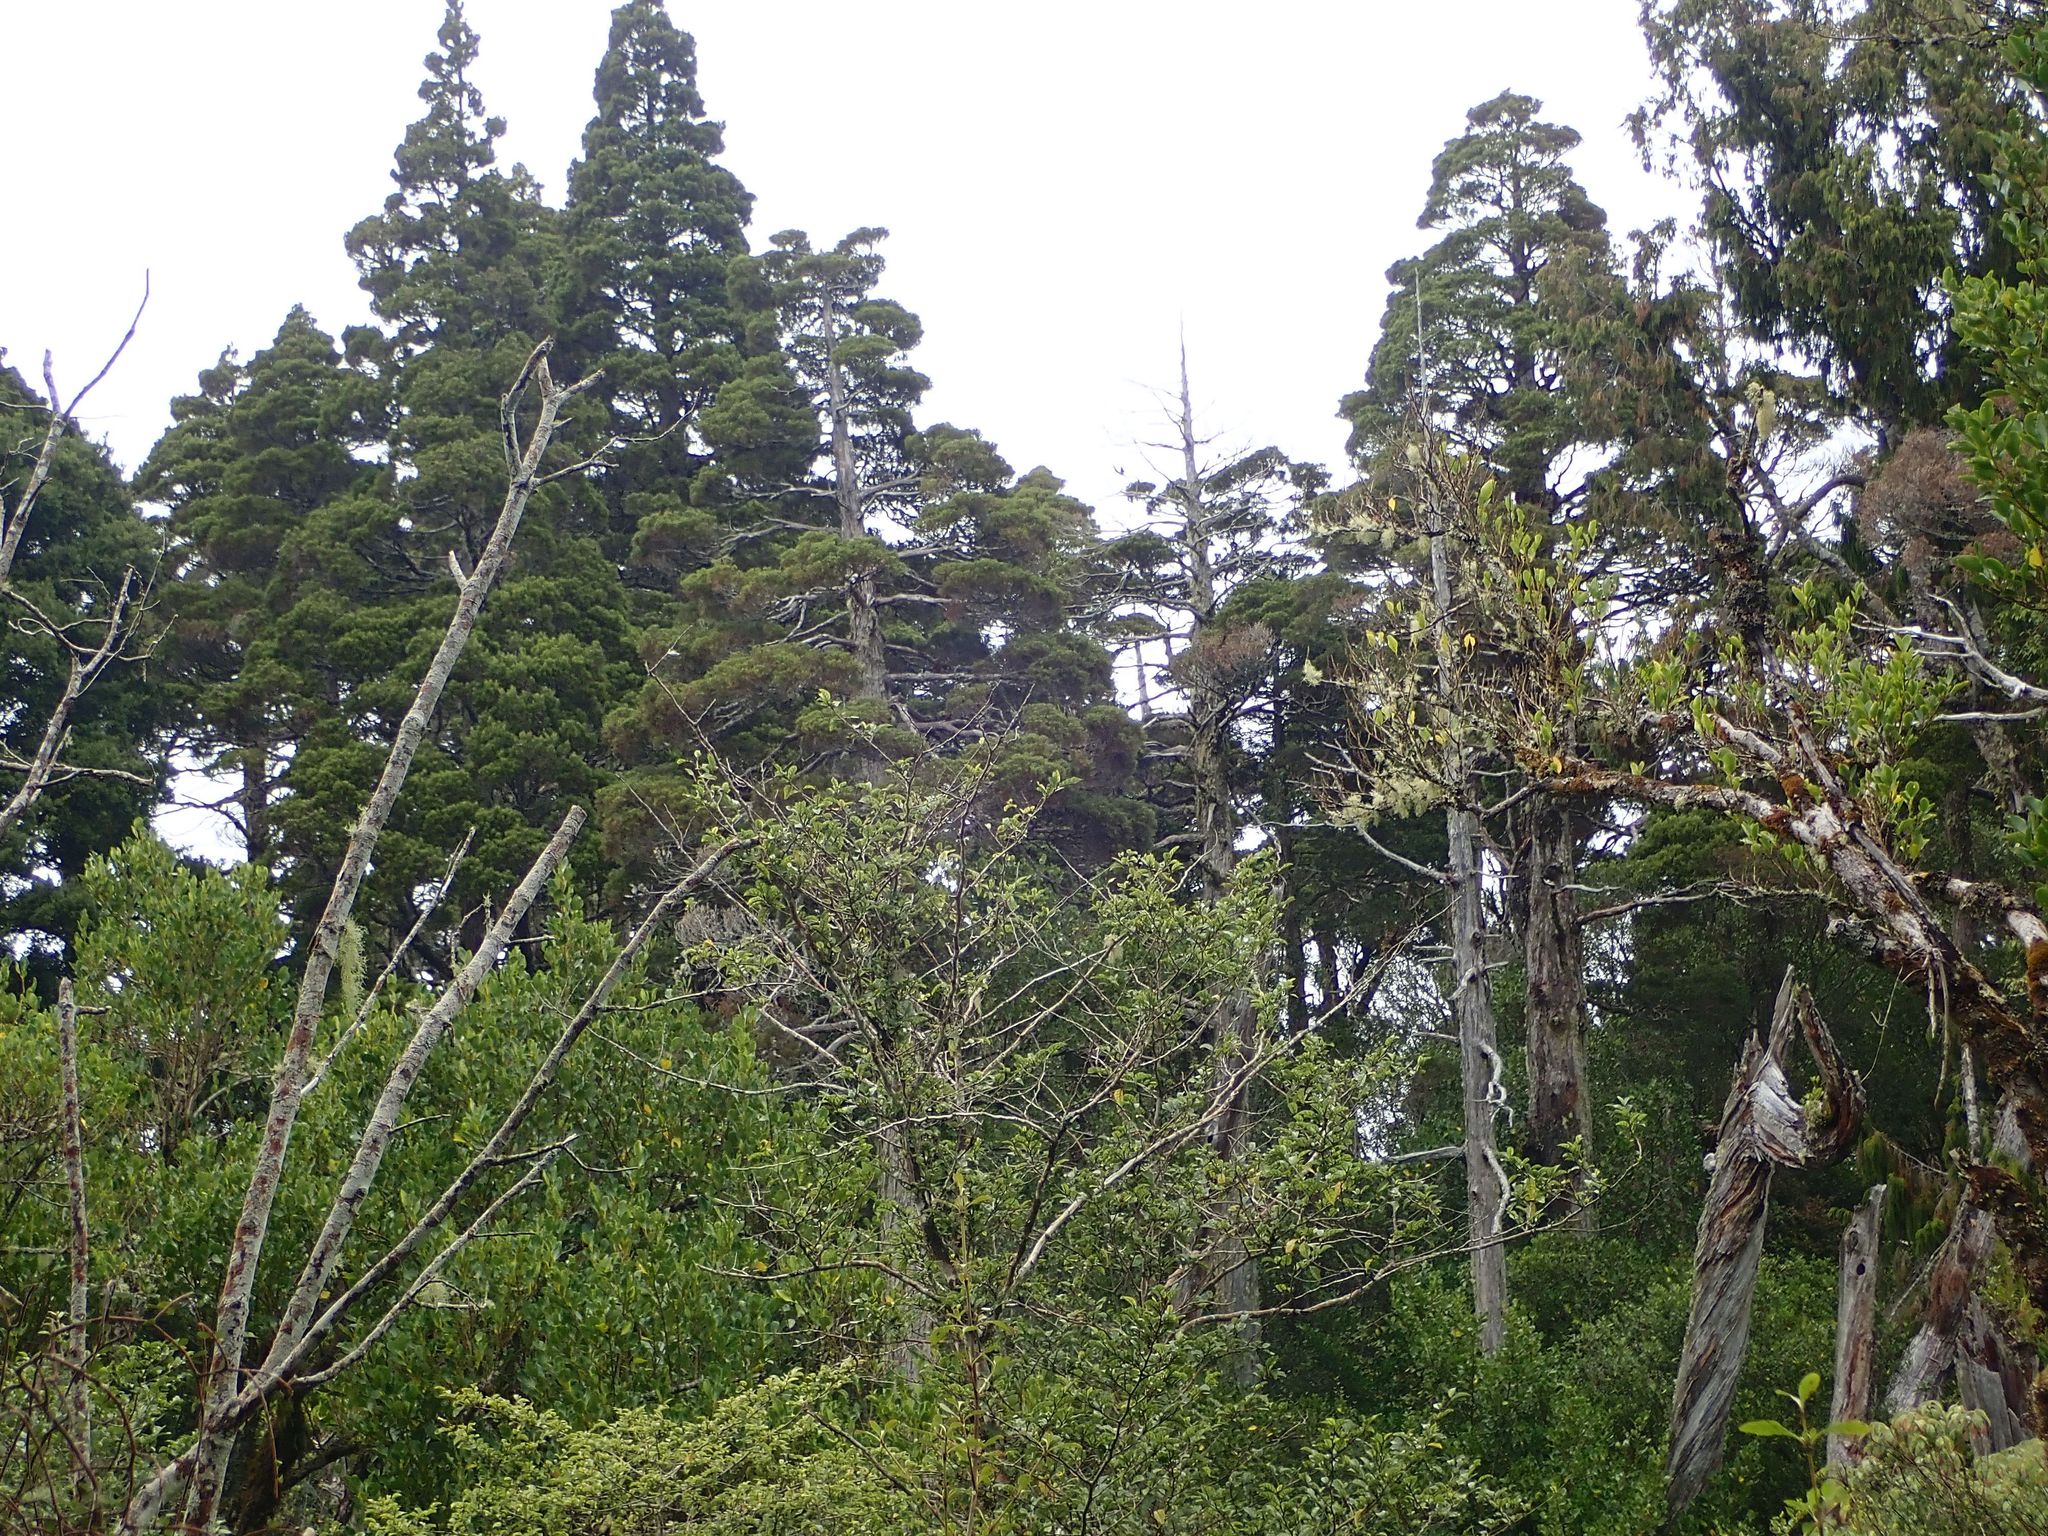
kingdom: Plantae
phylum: Tracheophyta
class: Pinopsida
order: Pinales
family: Cupressaceae
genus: Libocedrus
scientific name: Libocedrus bidwillii
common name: Cedar
